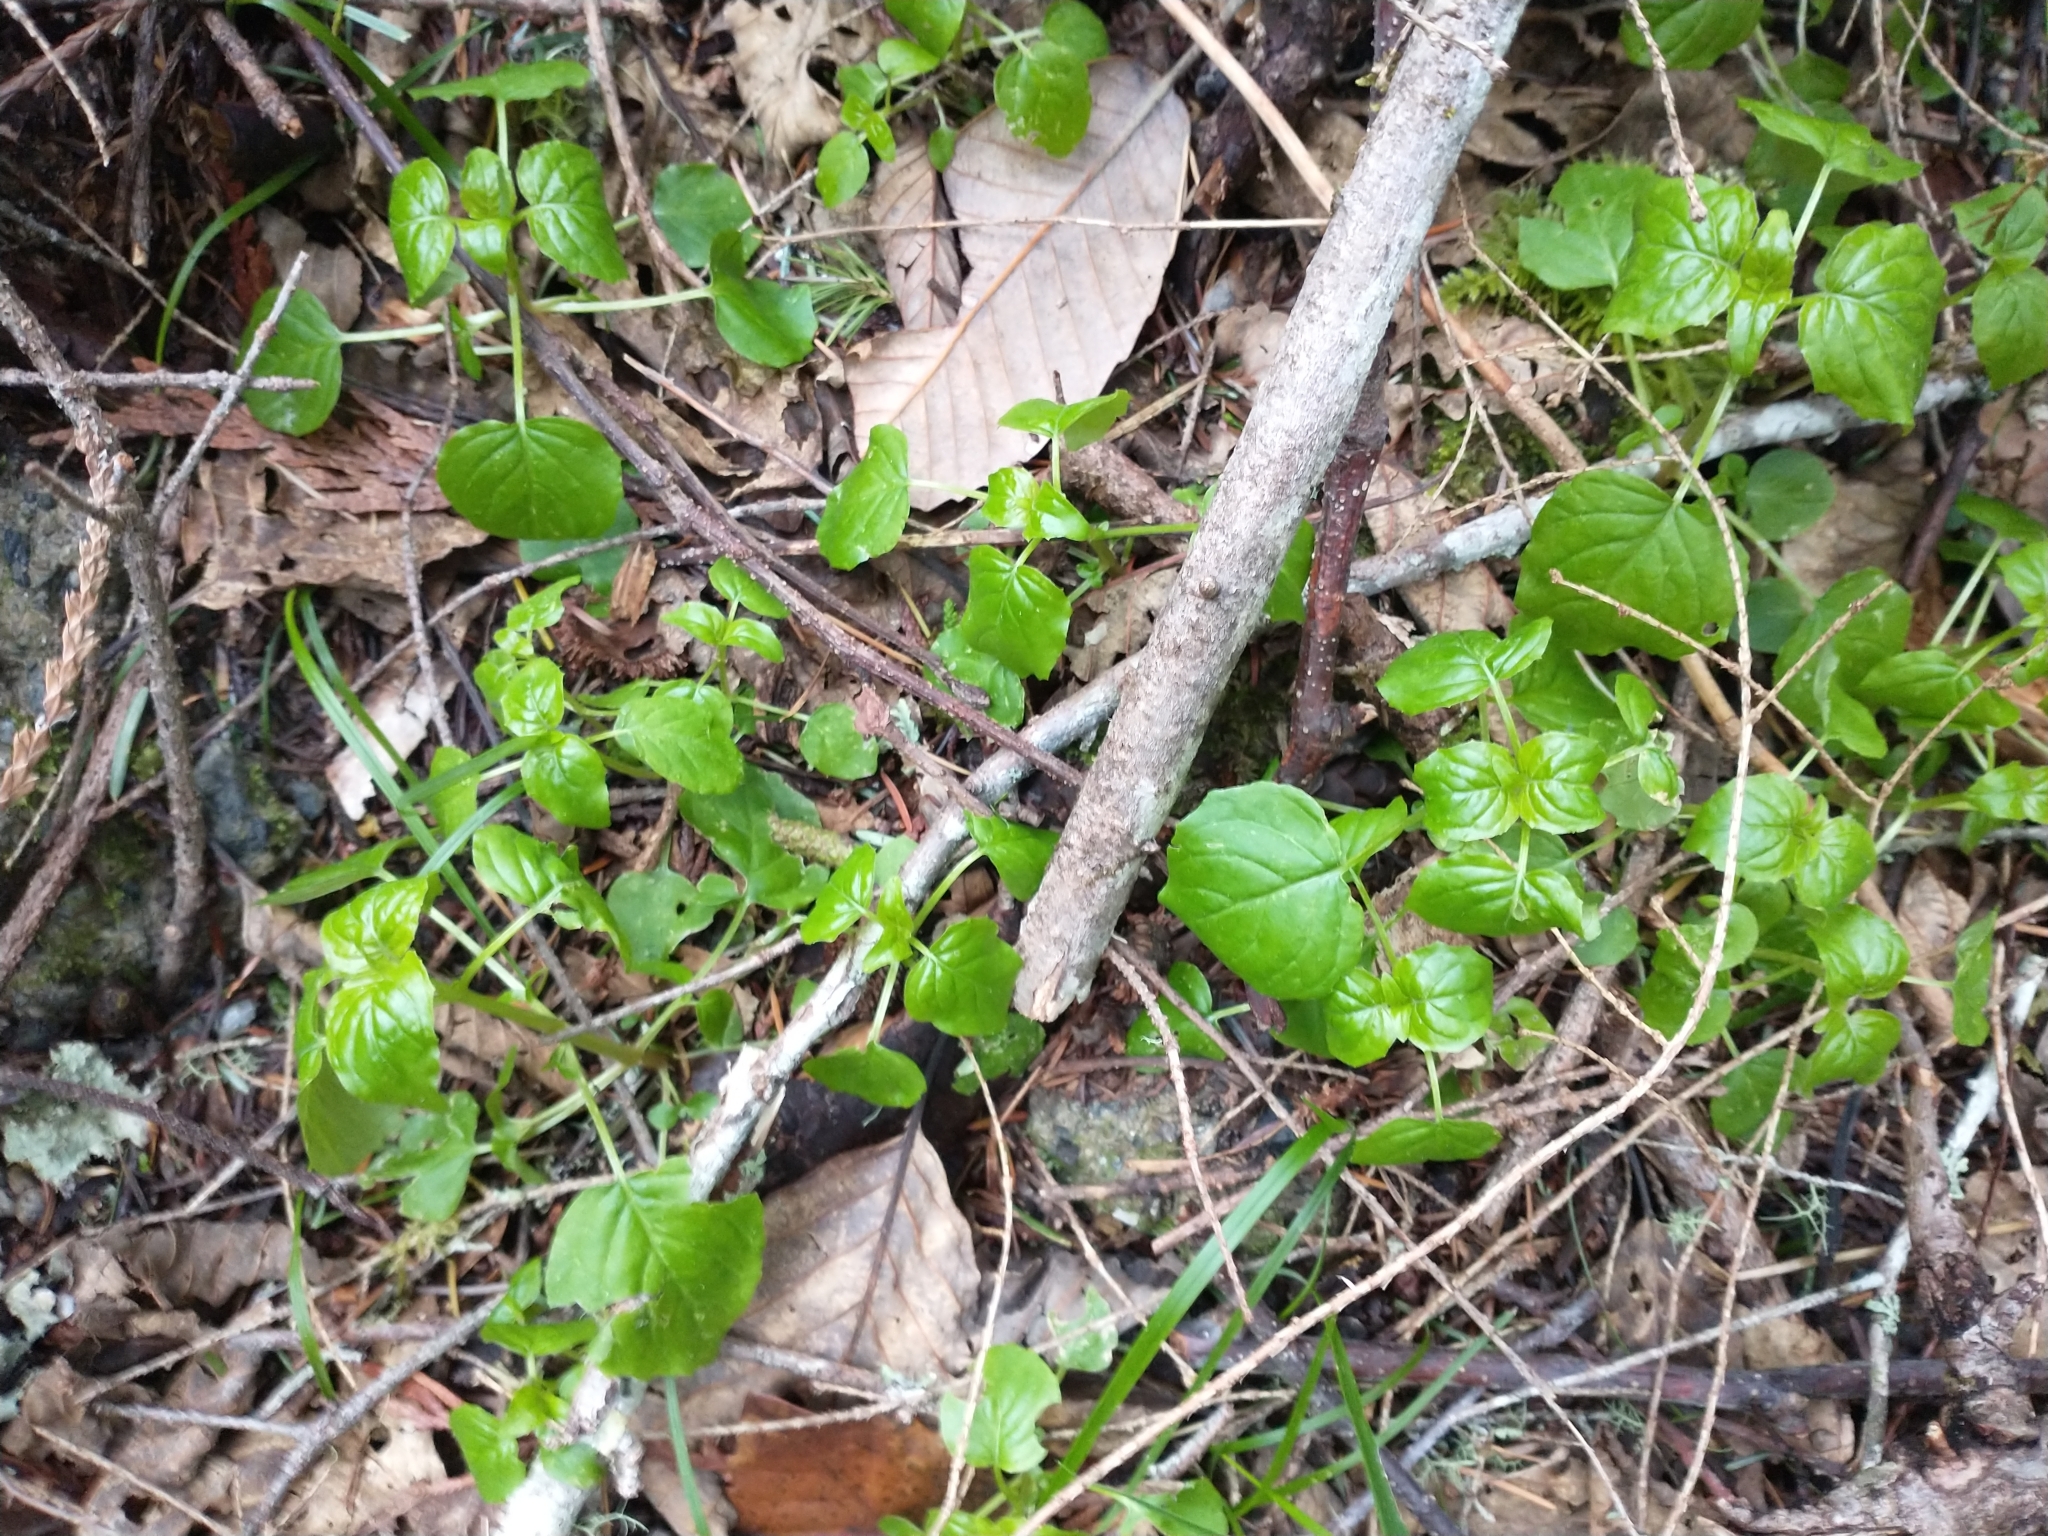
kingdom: Plantae
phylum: Tracheophyta
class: Magnoliopsida
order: Myrtales
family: Onagraceae
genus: Circaea
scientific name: Circaea alpina
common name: Alpine enchanter's-nightshade
